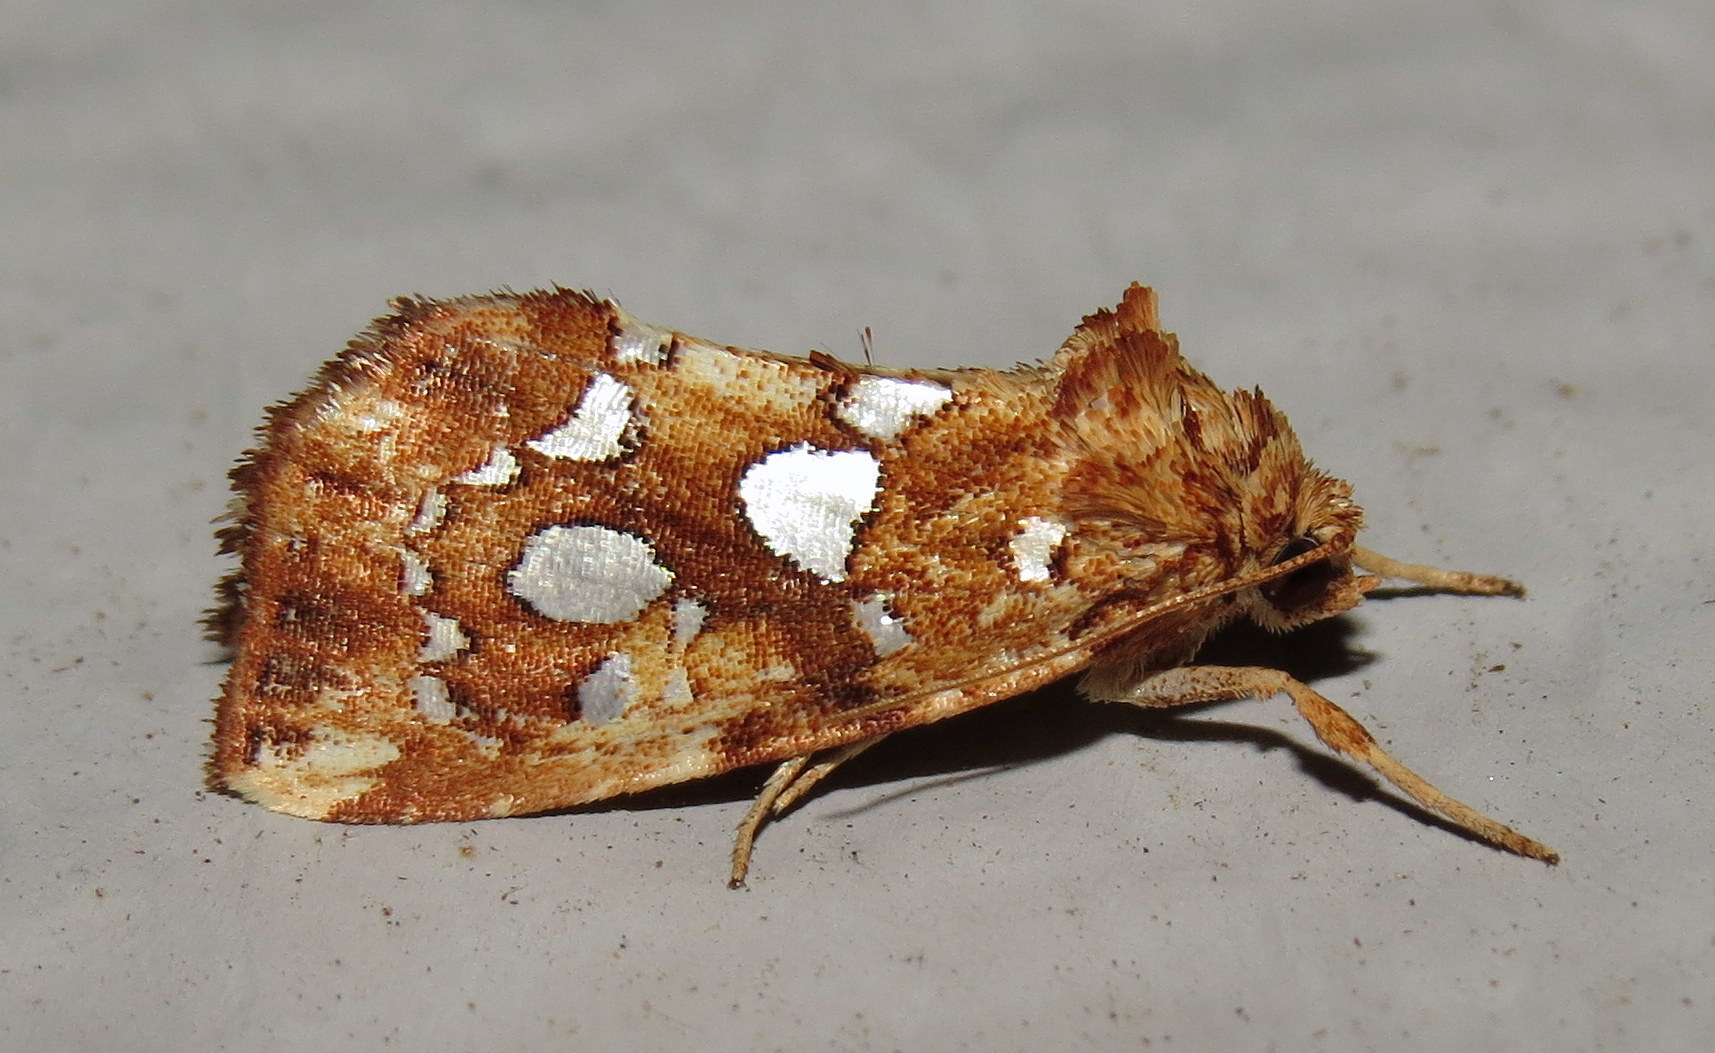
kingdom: Animalia
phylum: Arthropoda
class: Insecta
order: Lepidoptera
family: Noctuidae
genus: Callopistria
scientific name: Callopistria cordata
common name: Silver-spotted fern moth
